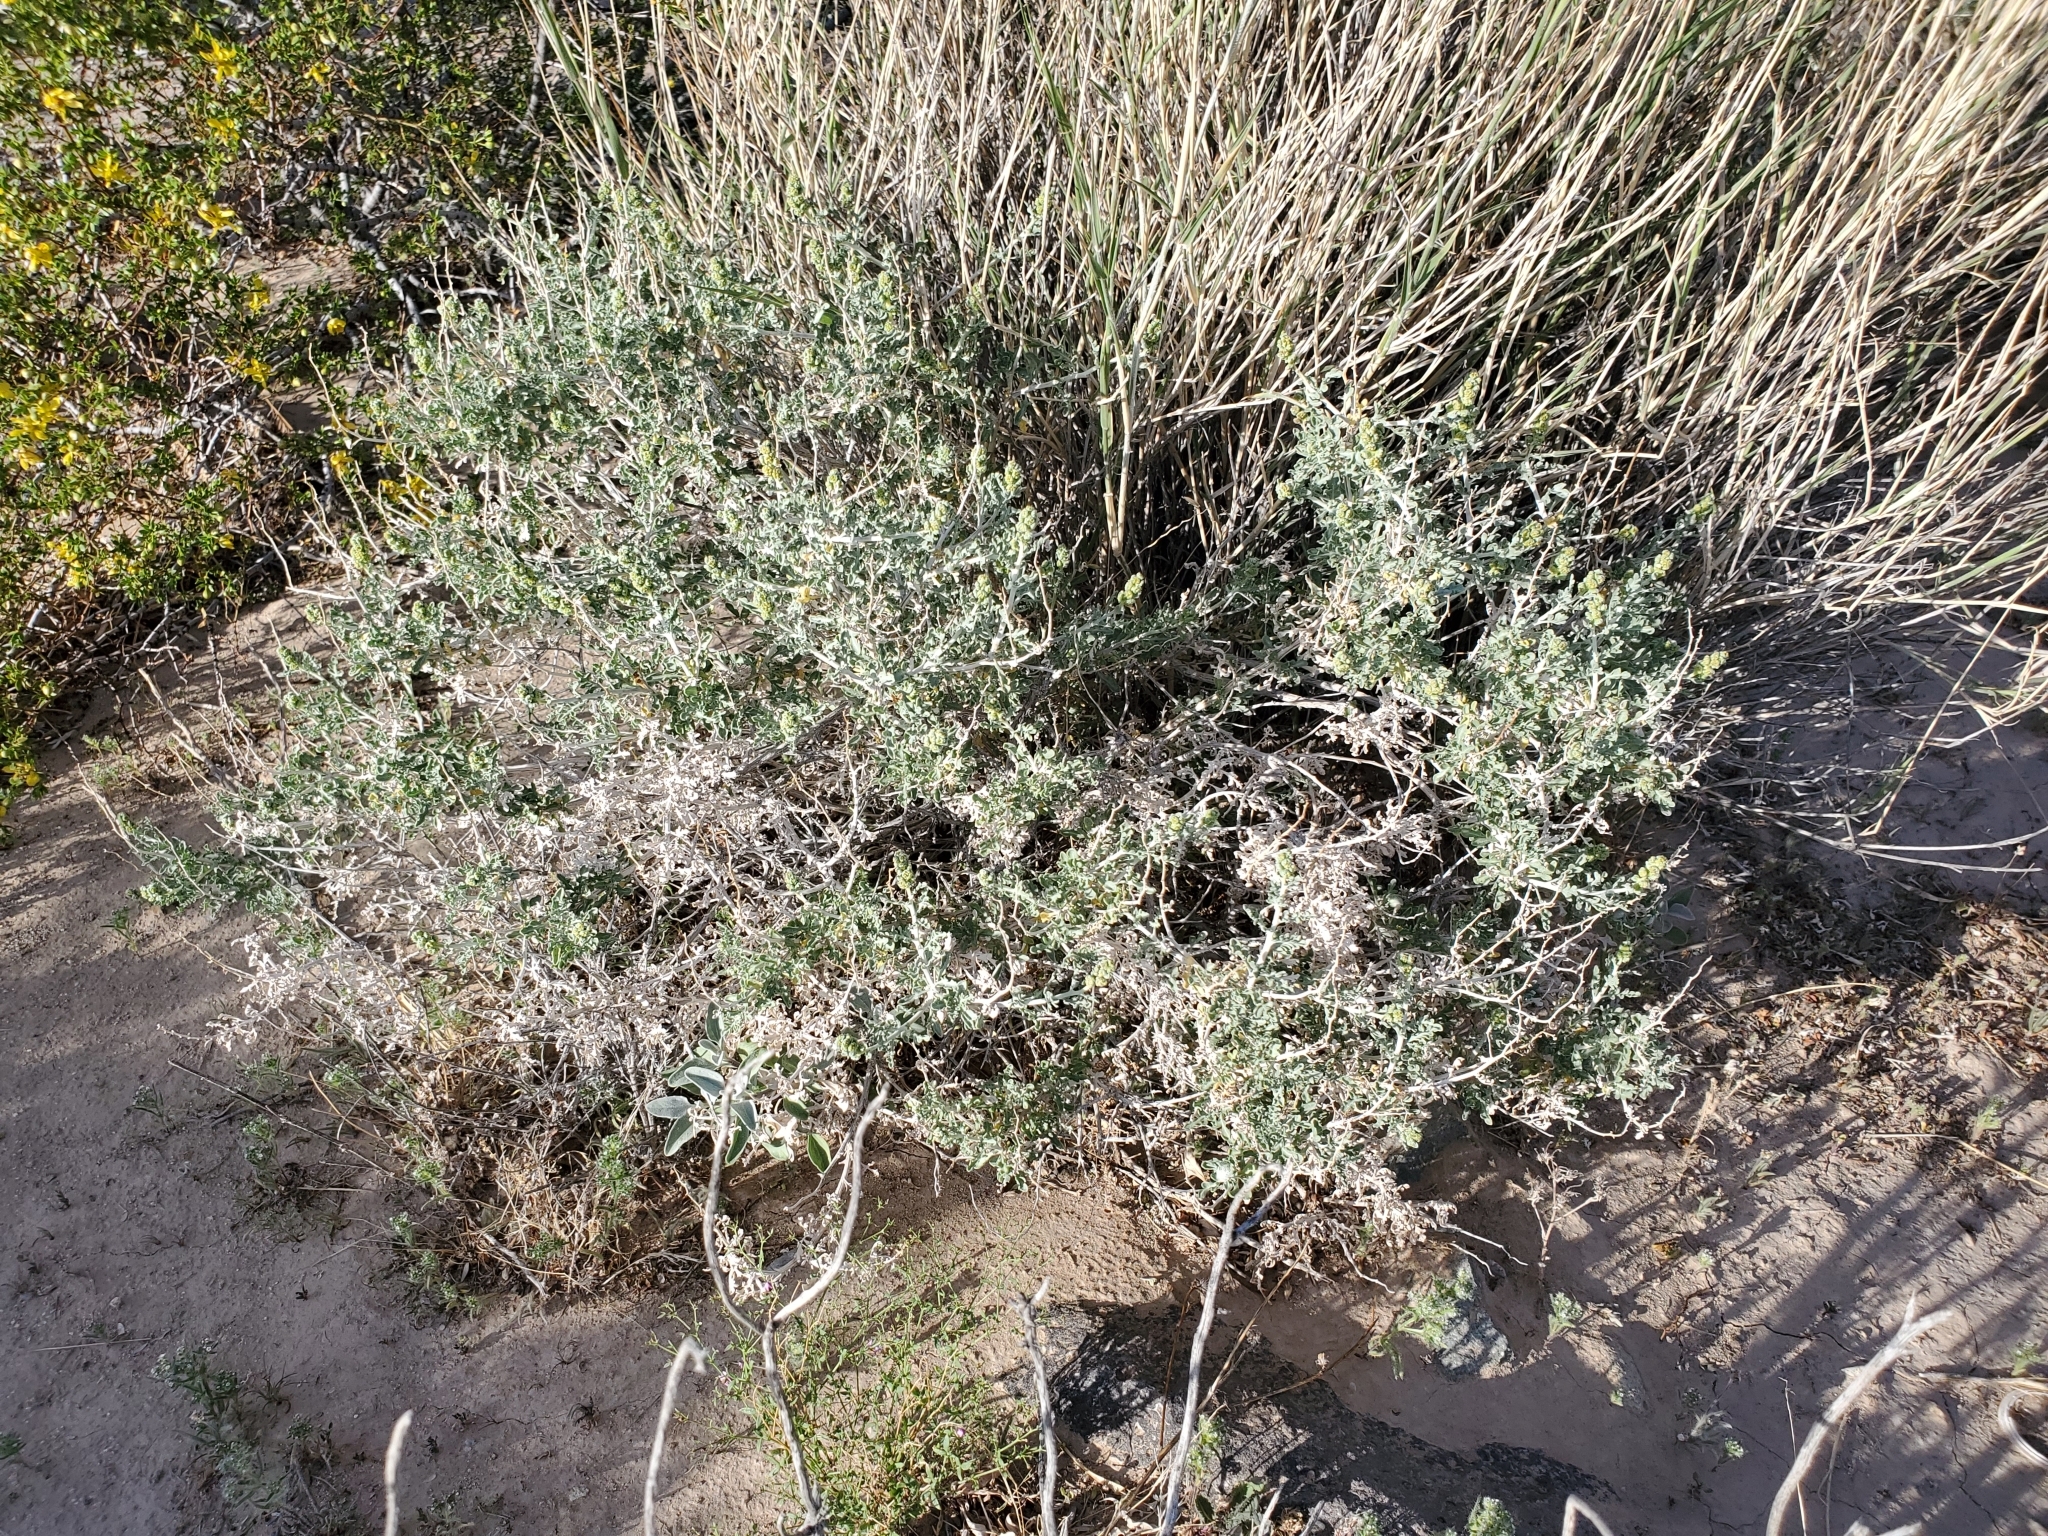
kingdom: Plantae
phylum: Tracheophyta
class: Magnoliopsida
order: Asterales
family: Asteraceae
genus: Ambrosia
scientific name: Ambrosia dumosa
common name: Bur-sage
